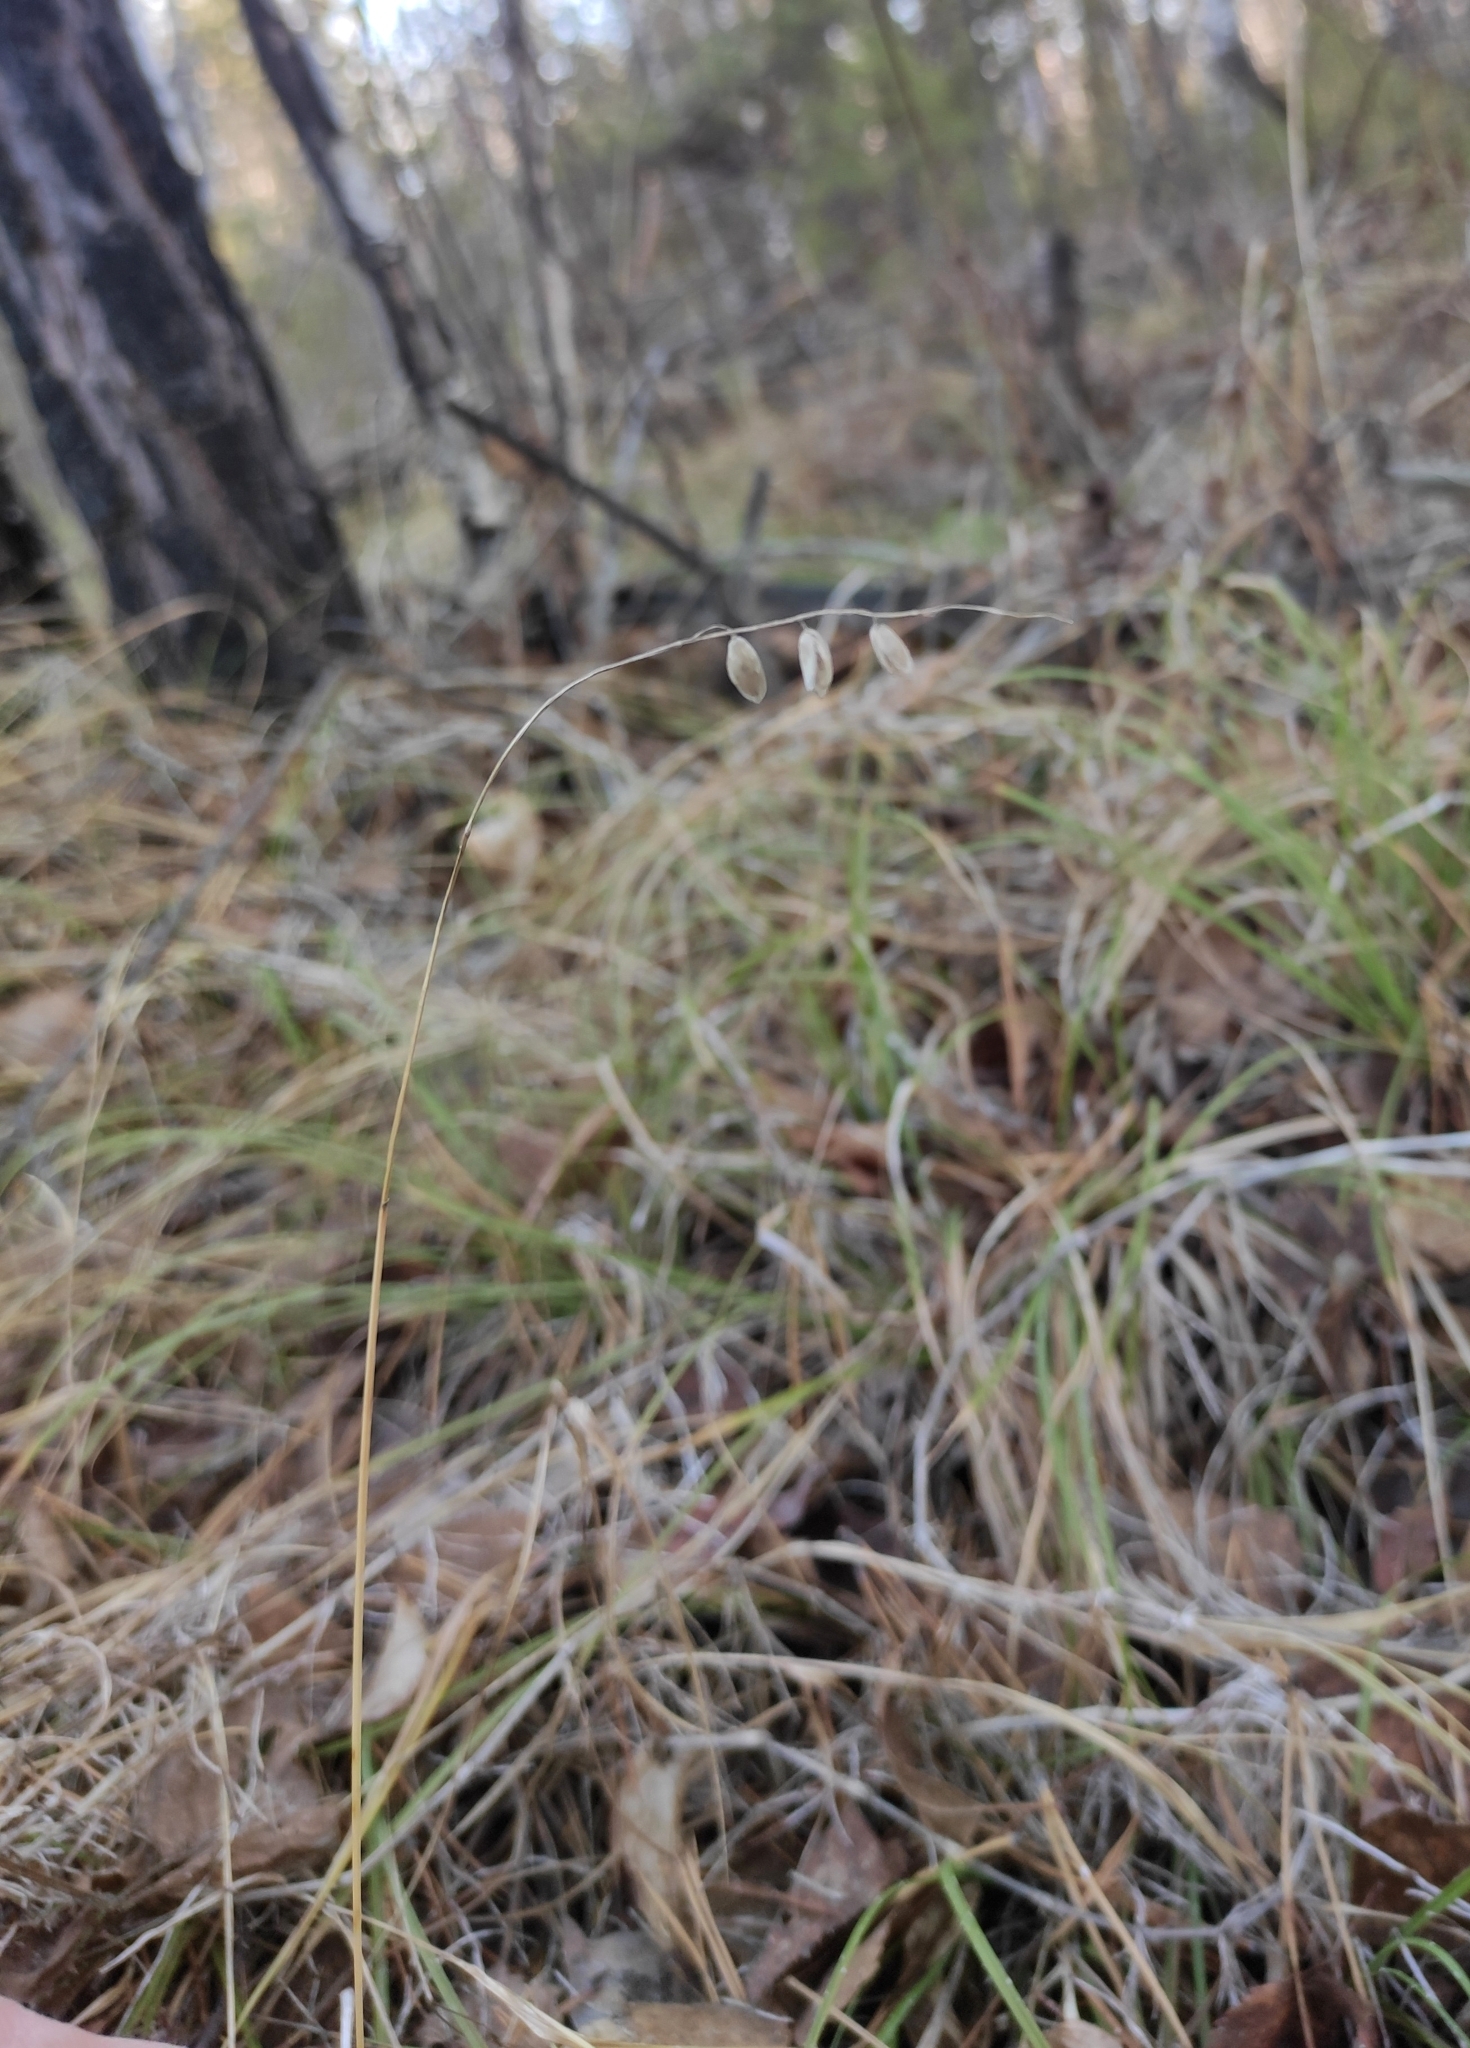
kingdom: Plantae
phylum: Tracheophyta
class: Liliopsida
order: Poales
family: Poaceae
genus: Melica
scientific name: Melica nutans
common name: Mountain melick
